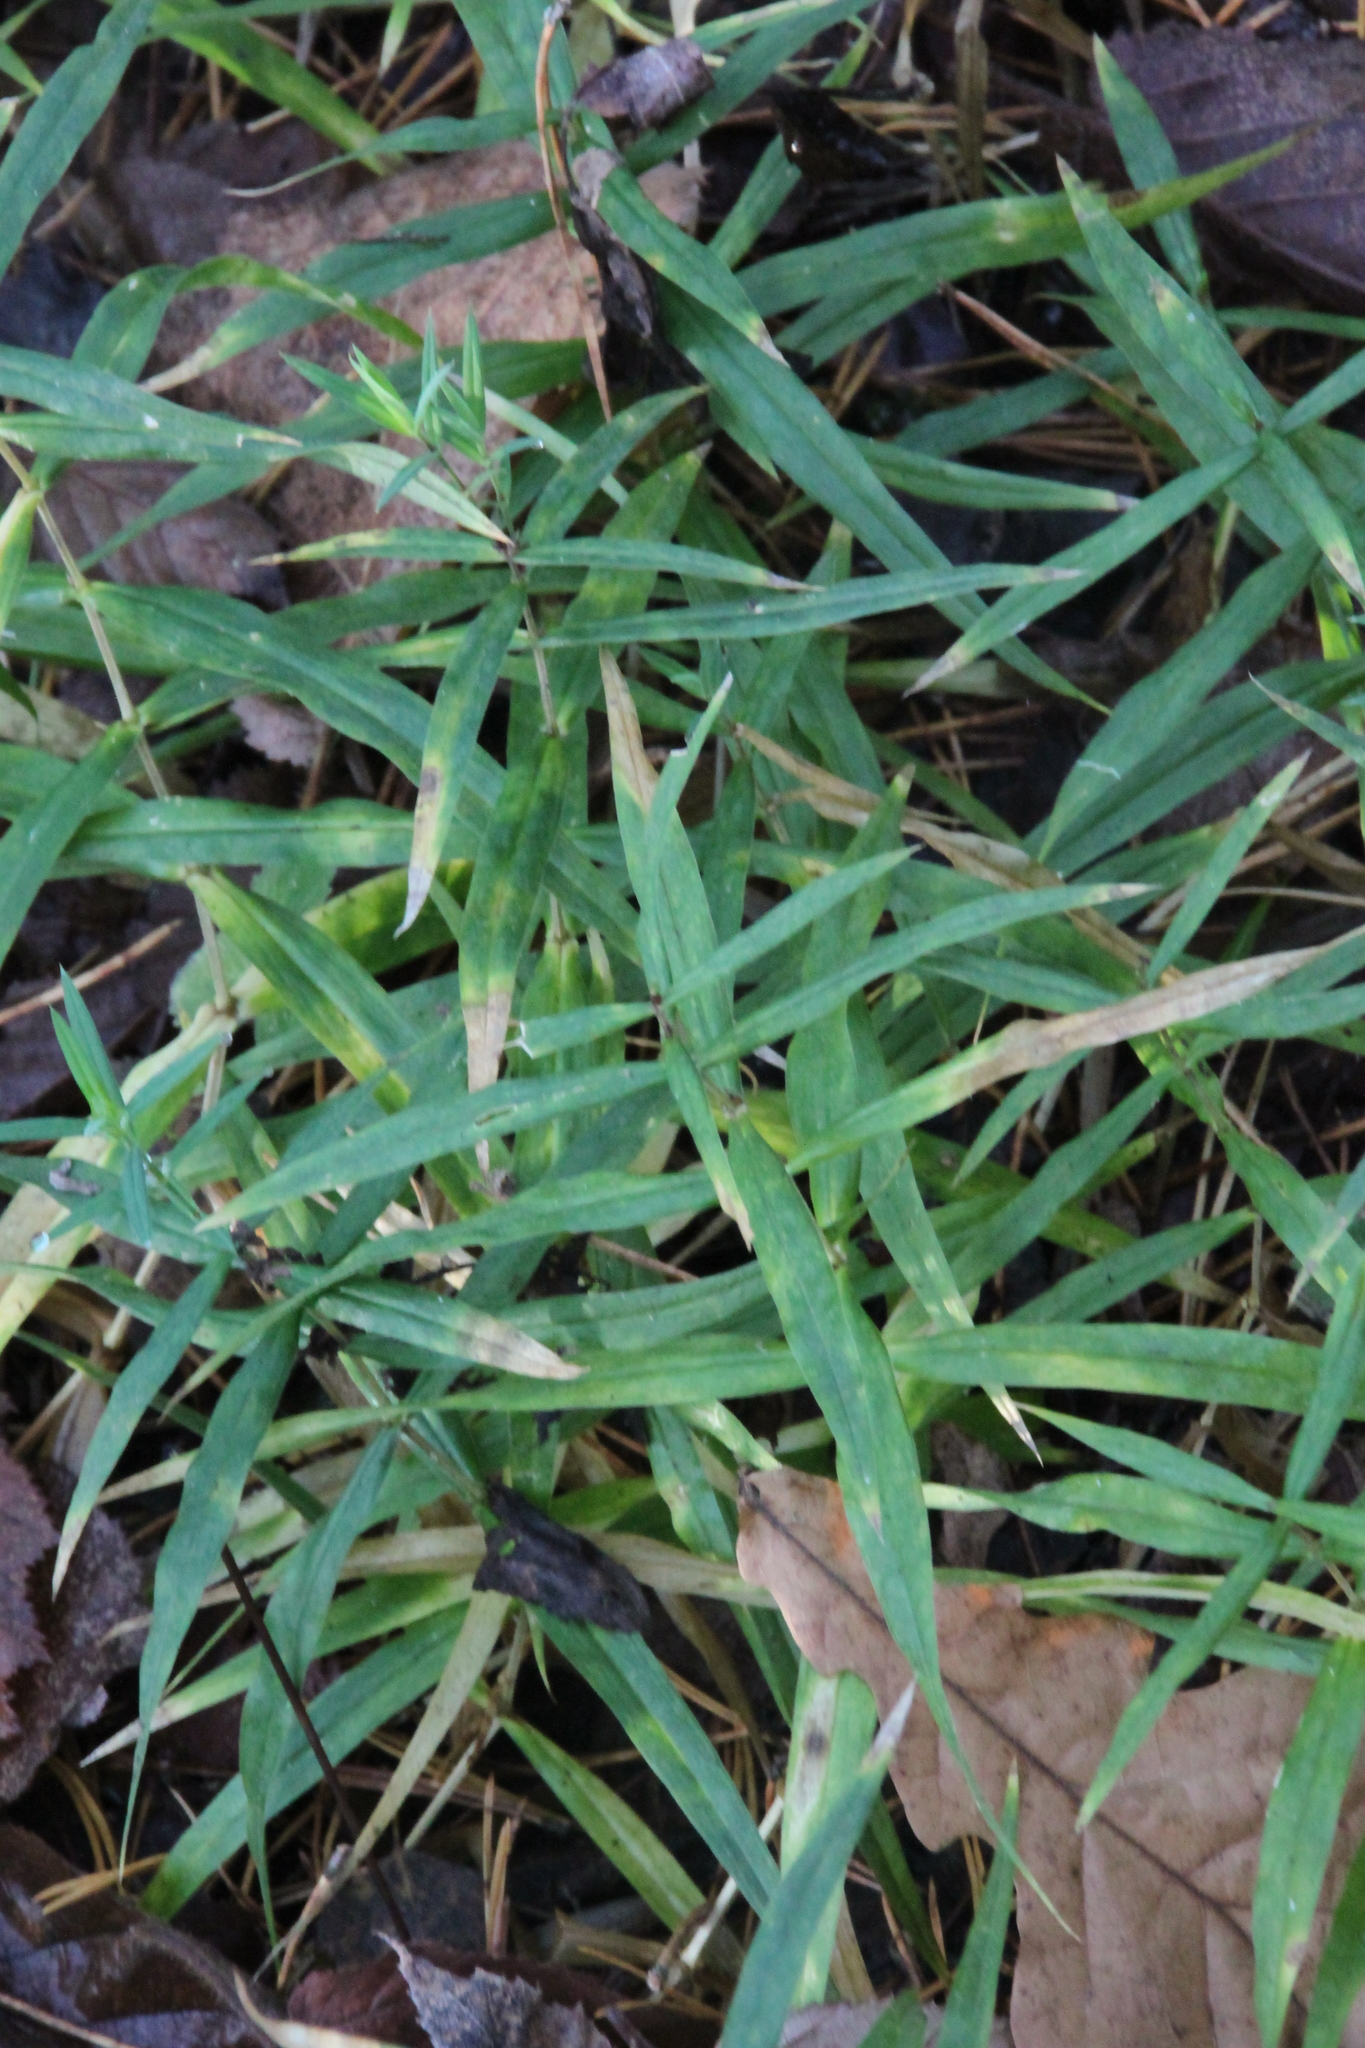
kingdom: Plantae
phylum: Tracheophyta
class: Magnoliopsida
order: Caryophyllales
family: Caryophyllaceae
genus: Rabelera
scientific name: Rabelera holostea
